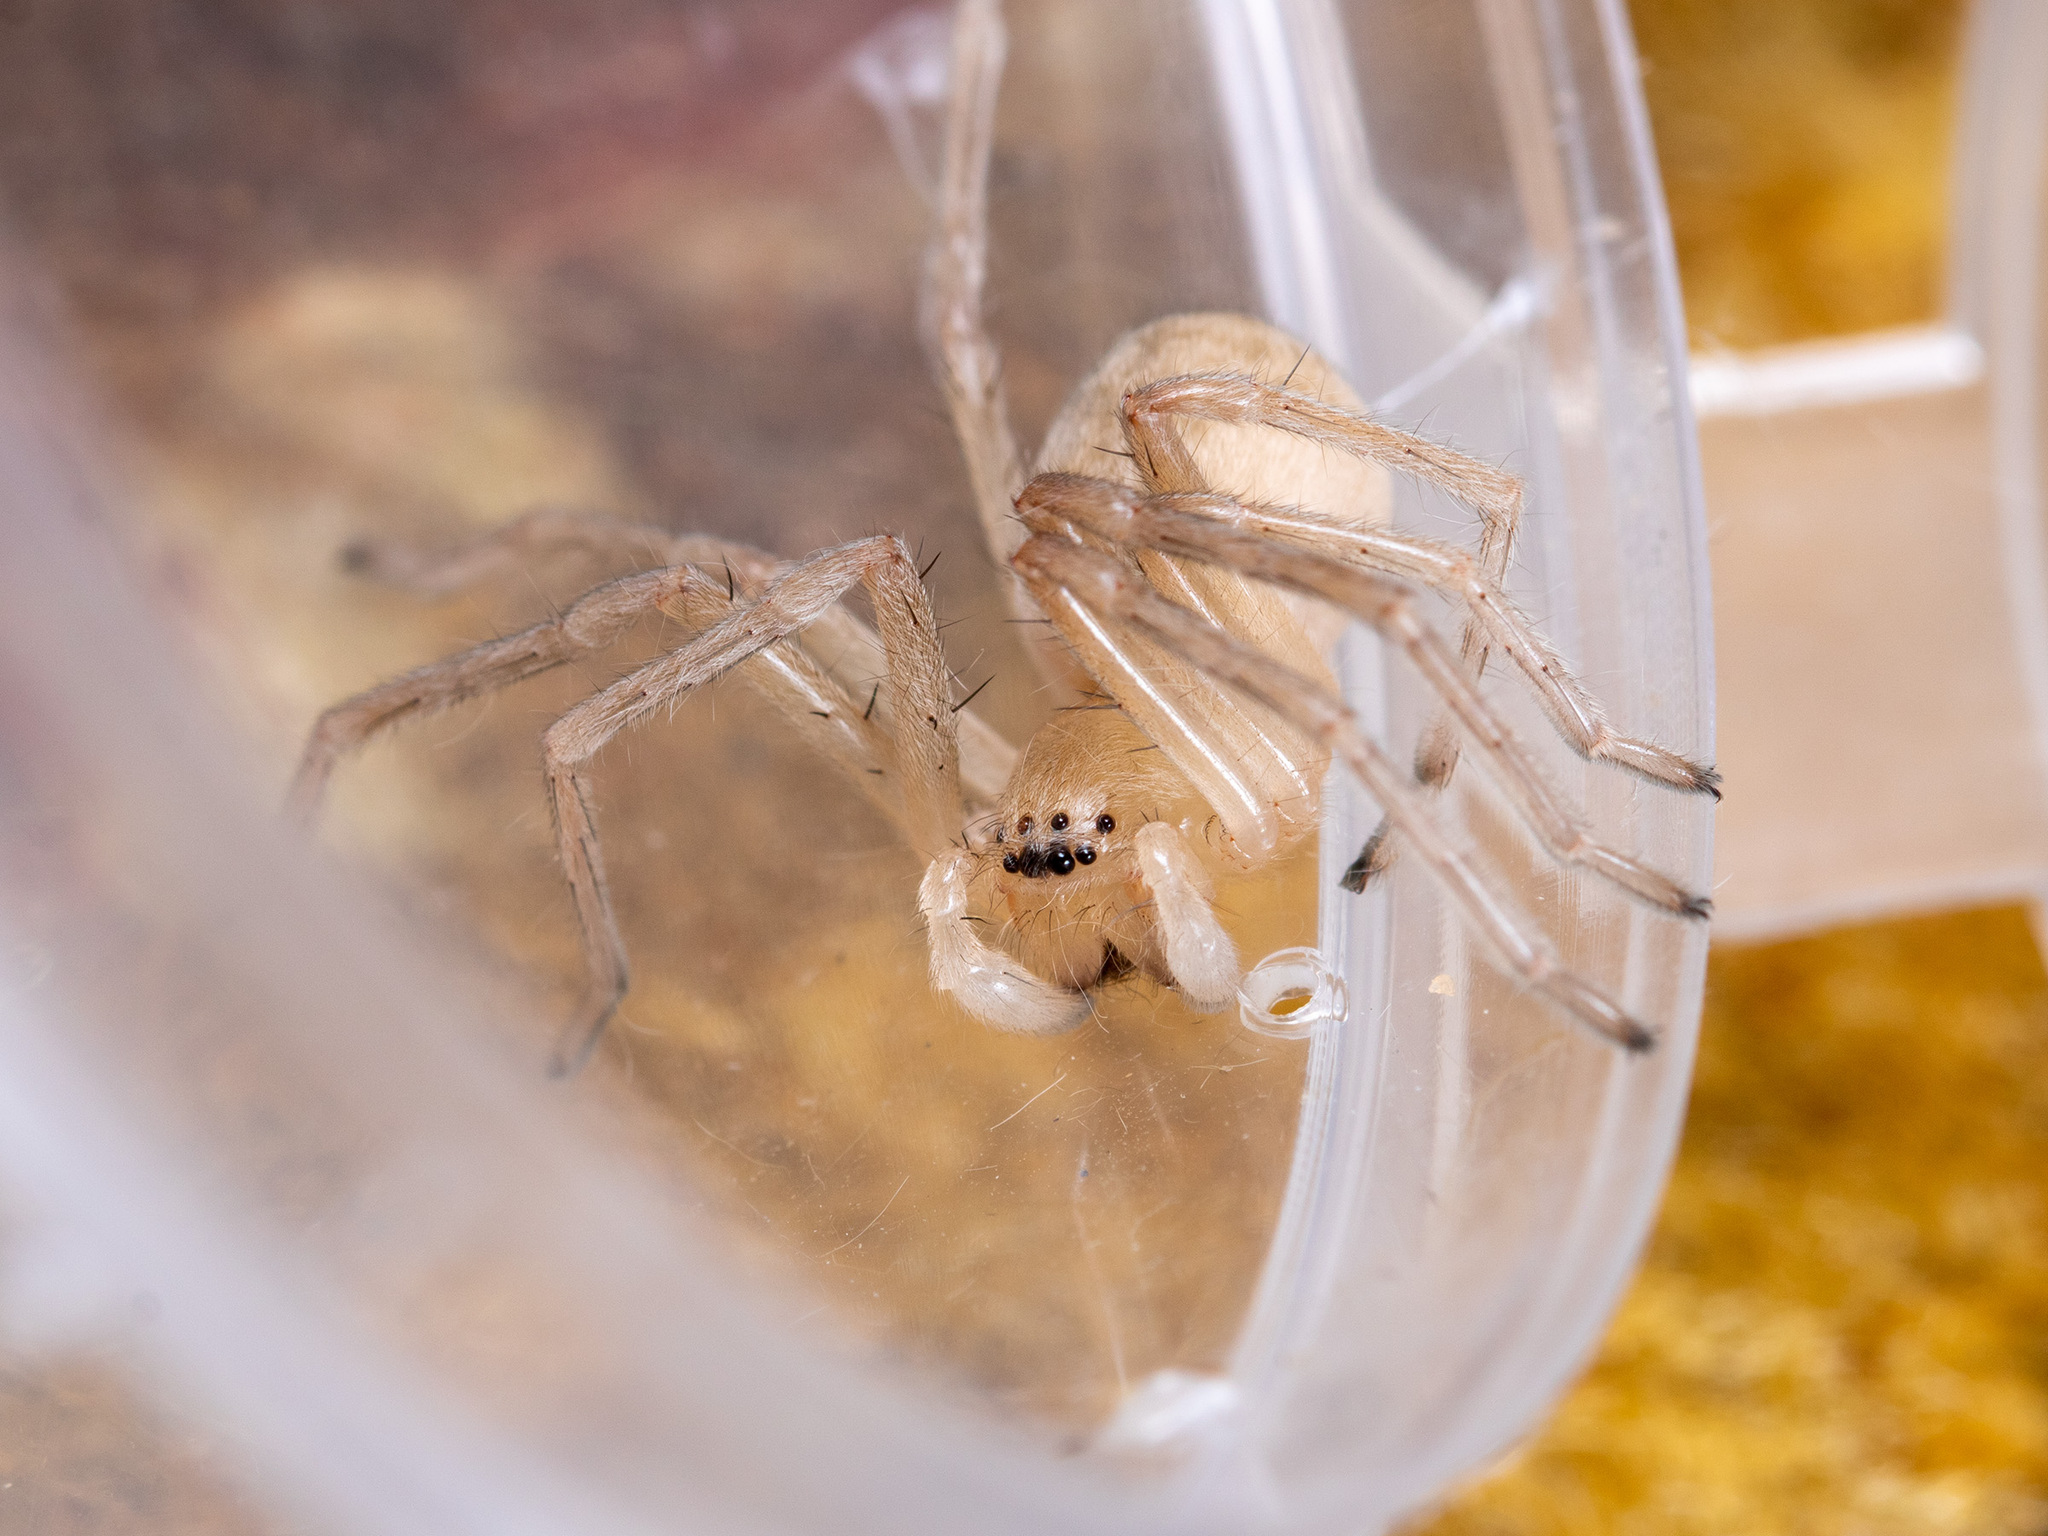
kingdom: Animalia
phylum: Arthropoda
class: Arachnida
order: Araneae
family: Sparassidae
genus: Cebrennus
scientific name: Cebrennus kazakhstanicus
